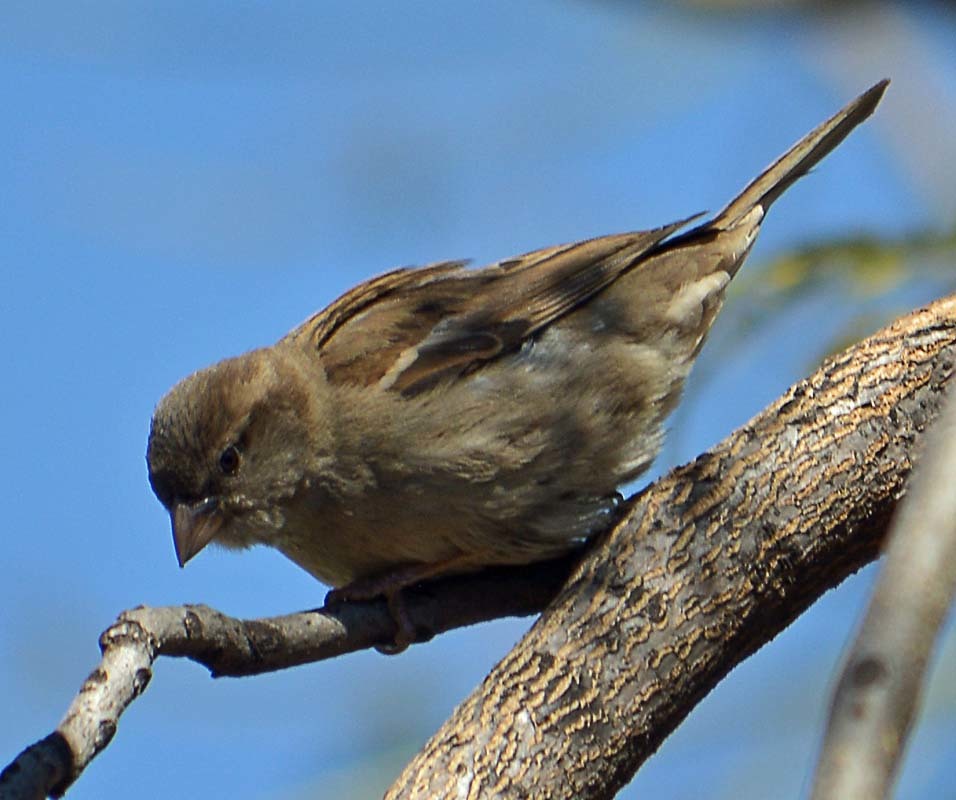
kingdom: Animalia
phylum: Chordata
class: Aves
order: Passeriformes
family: Passeridae
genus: Passer
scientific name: Passer domesticus
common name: House sparrow
